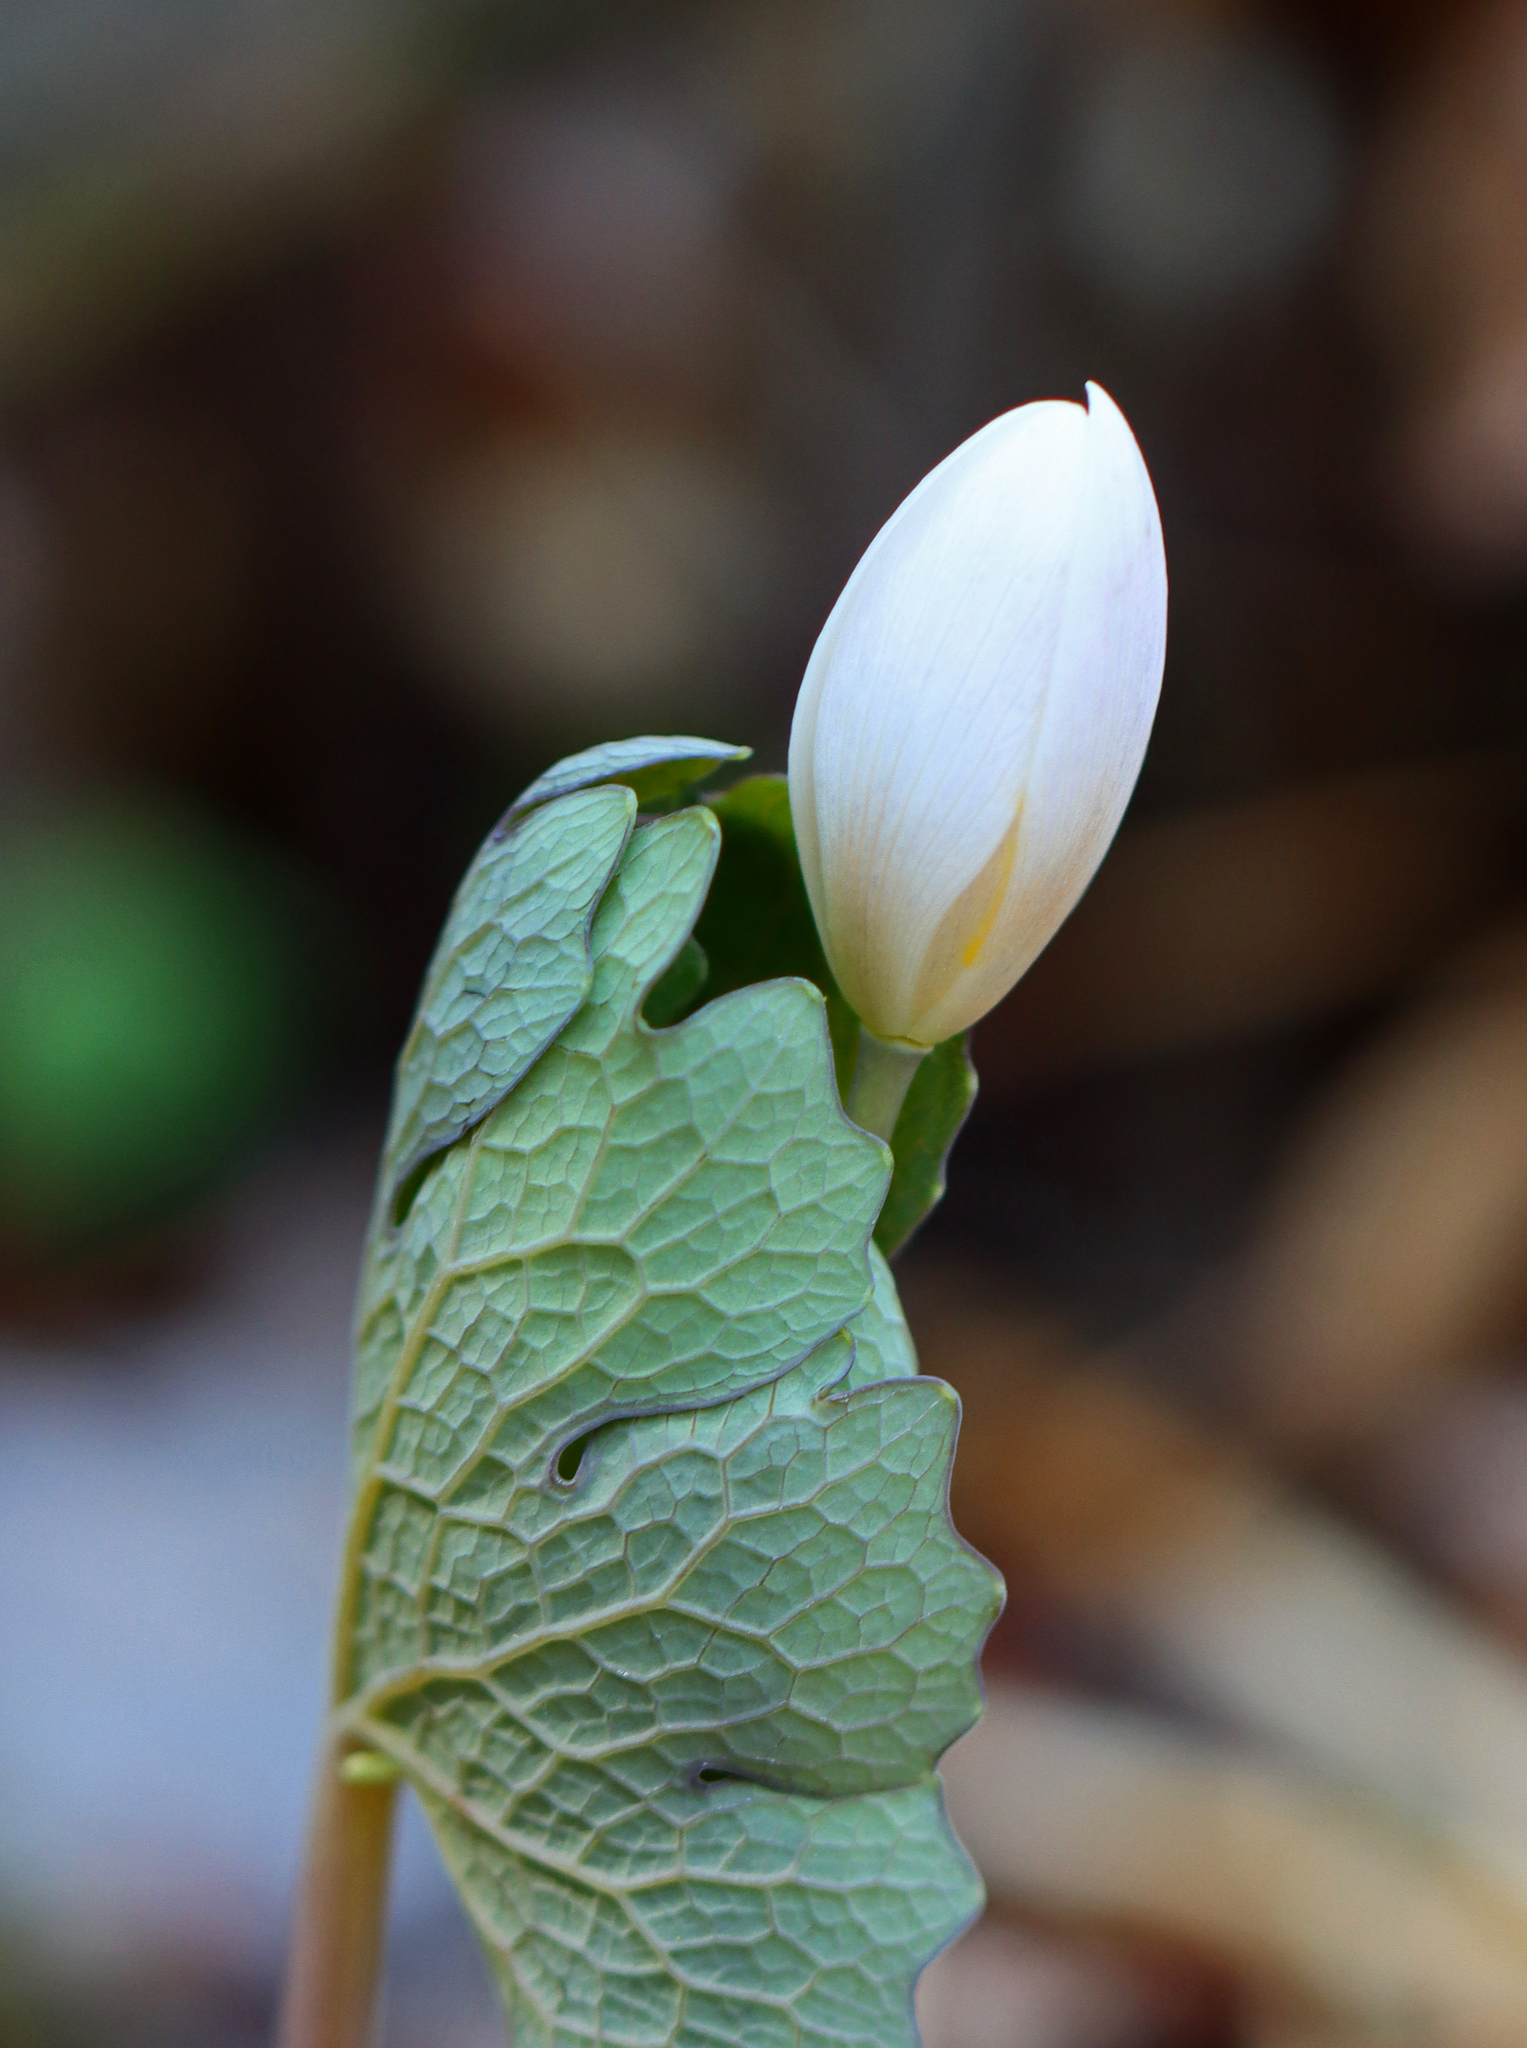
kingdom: Plantae
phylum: Tracheophyta
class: Magnoliopsida
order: Ranunculales
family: Papaveraceae
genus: Sanguinaria
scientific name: Sanguinaria canadensis
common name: Bloodroot
